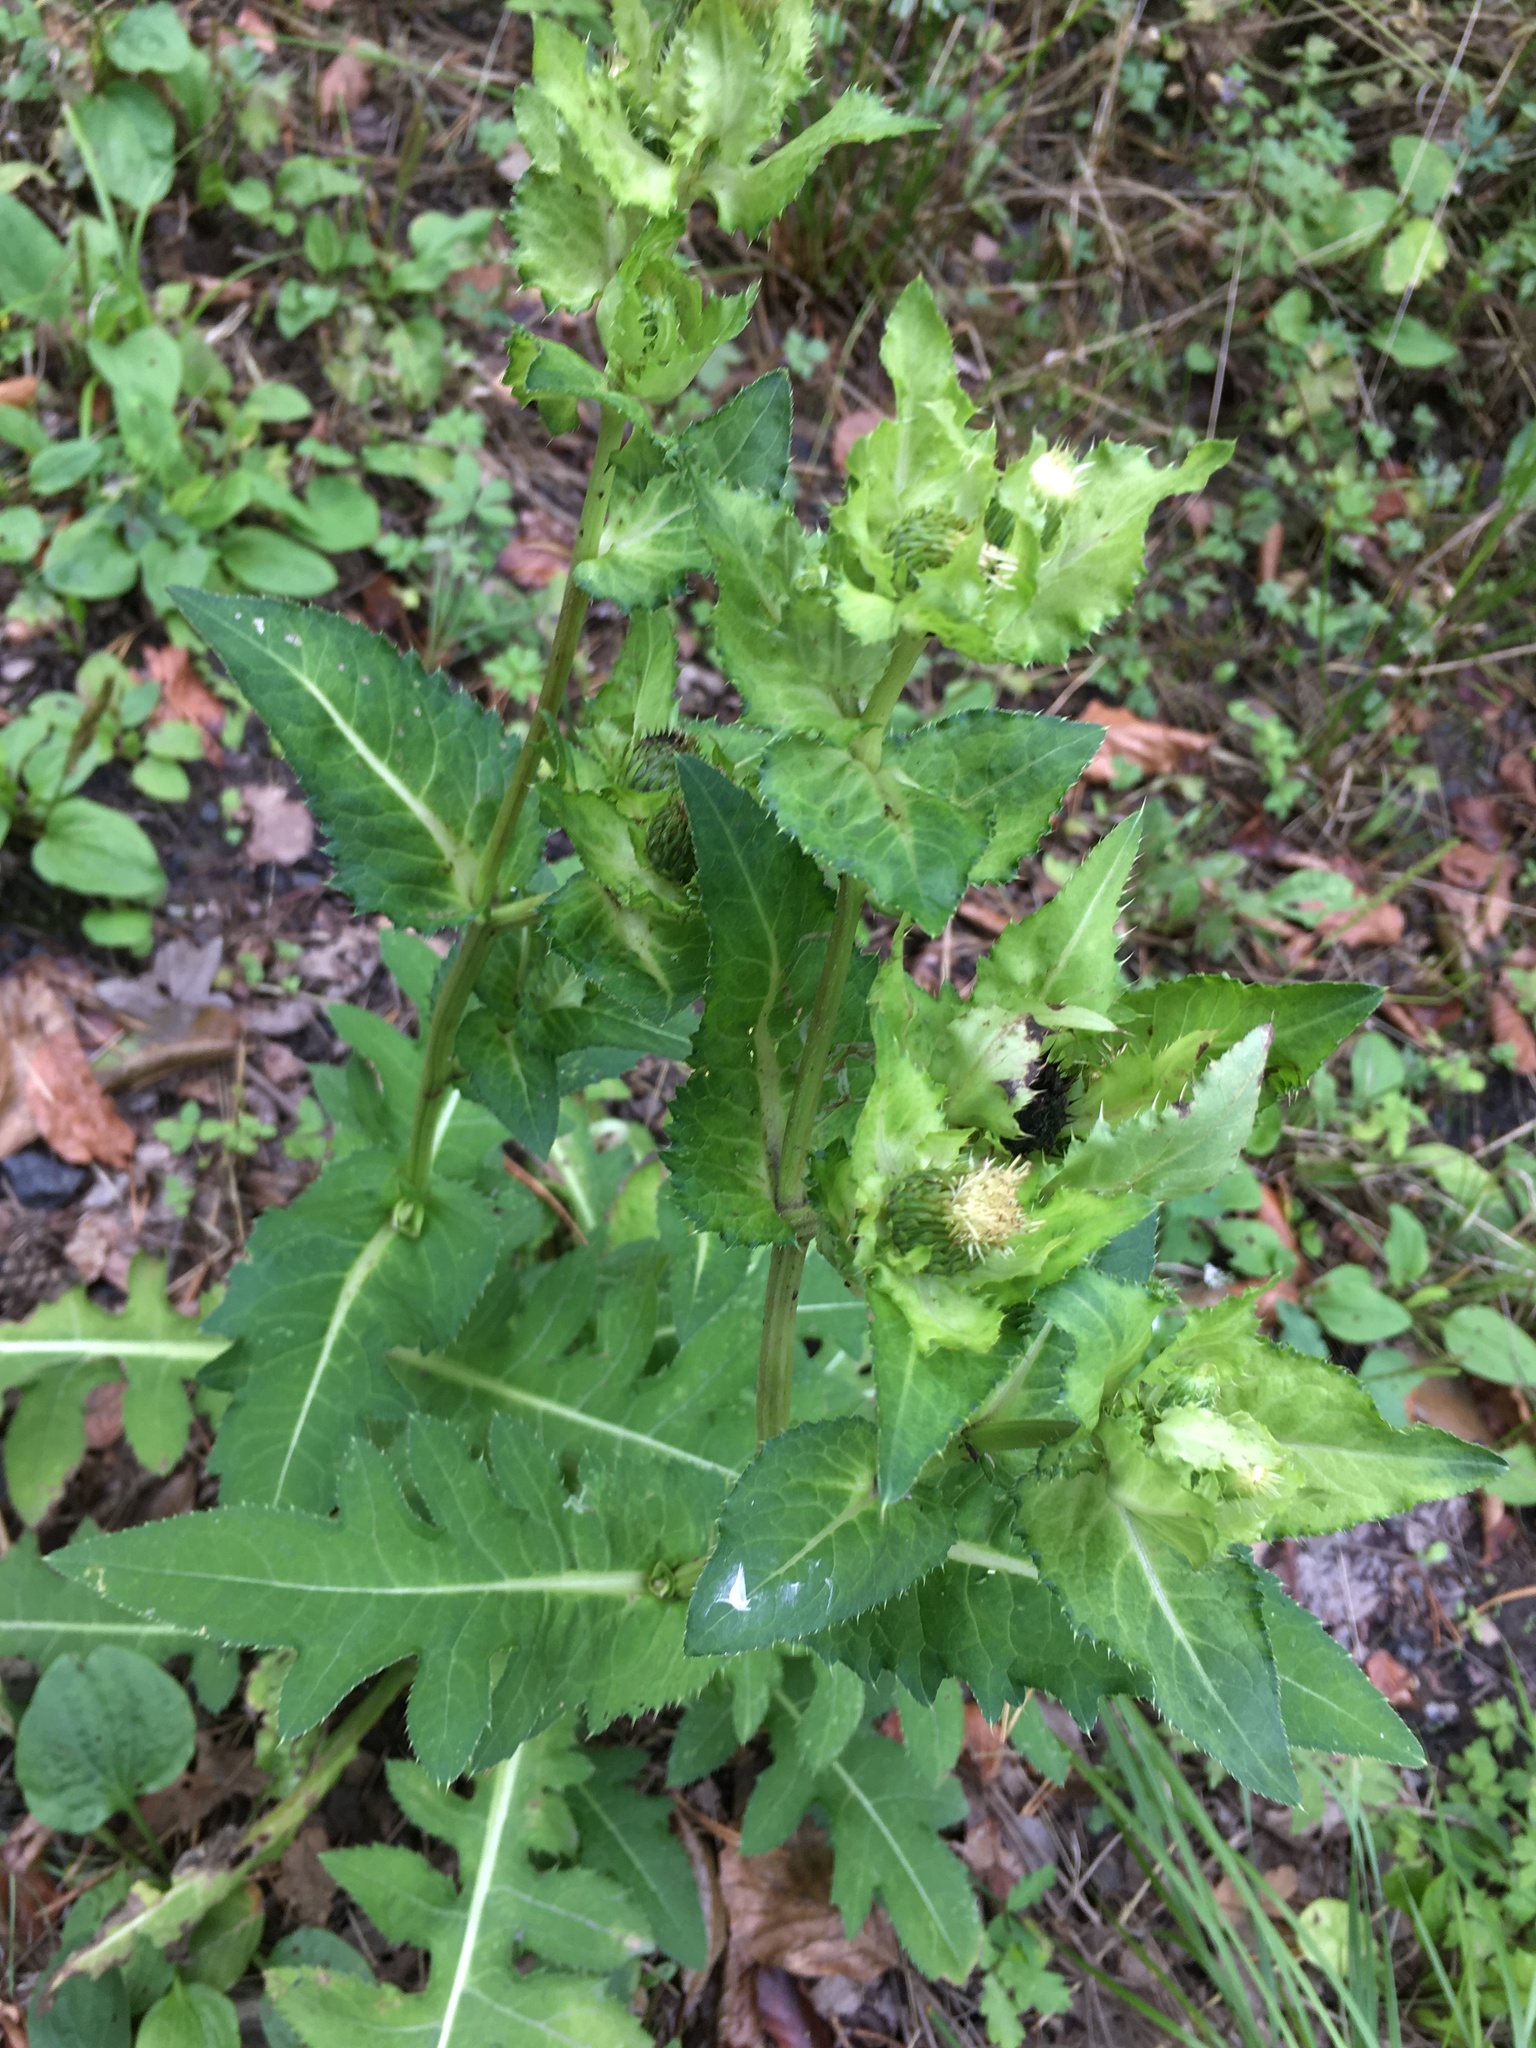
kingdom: Plantae
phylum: Tracheophyta
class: Magnoliopsida
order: Asterales
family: Asteraceae
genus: Cirsium
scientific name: Cirsium oleraceum
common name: Cabbage thistle
